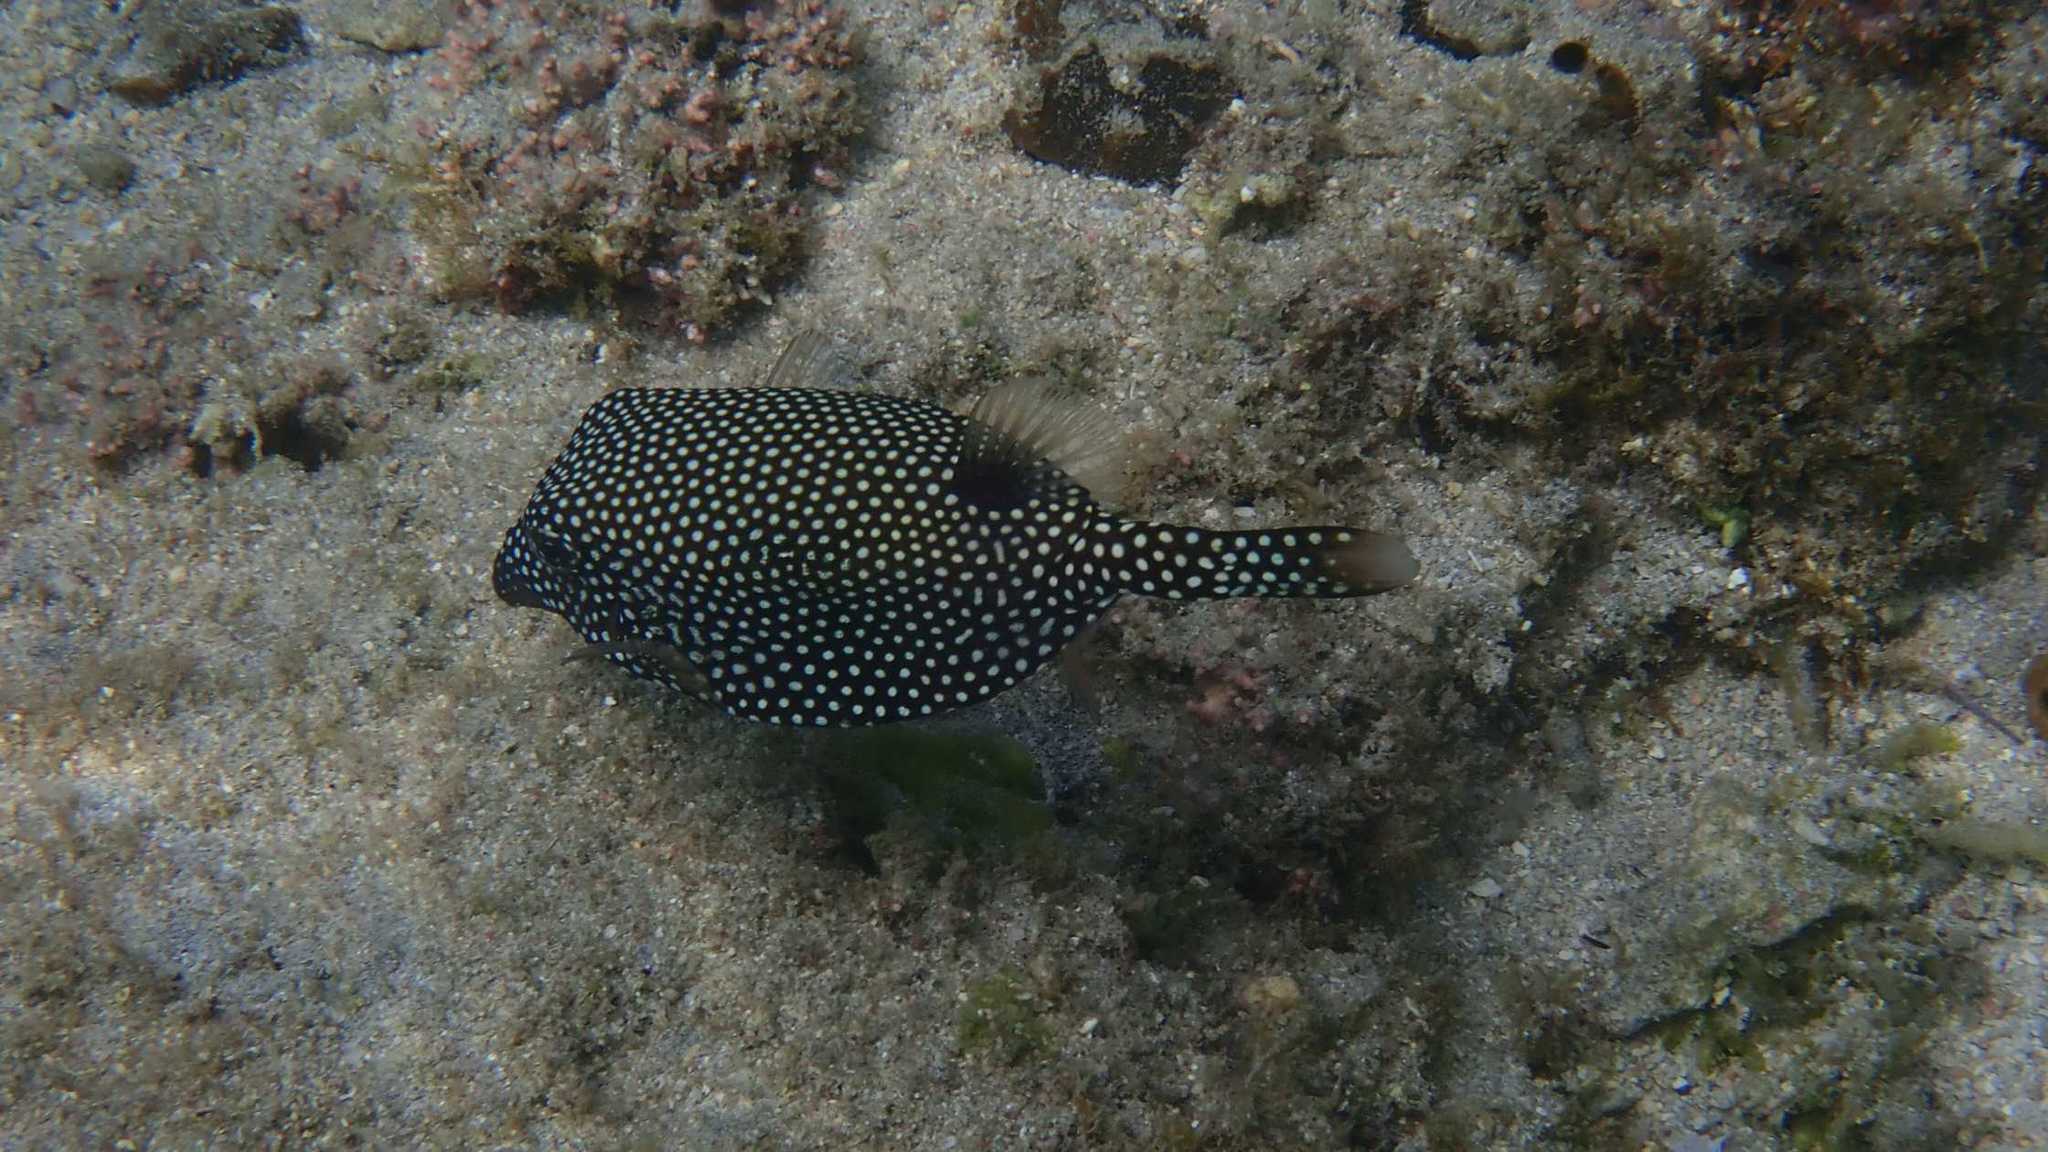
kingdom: Animalia
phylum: Chordata
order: Tetraodontiformes
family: Ostraciidae
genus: Ostracion
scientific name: Ostracion meleagris
